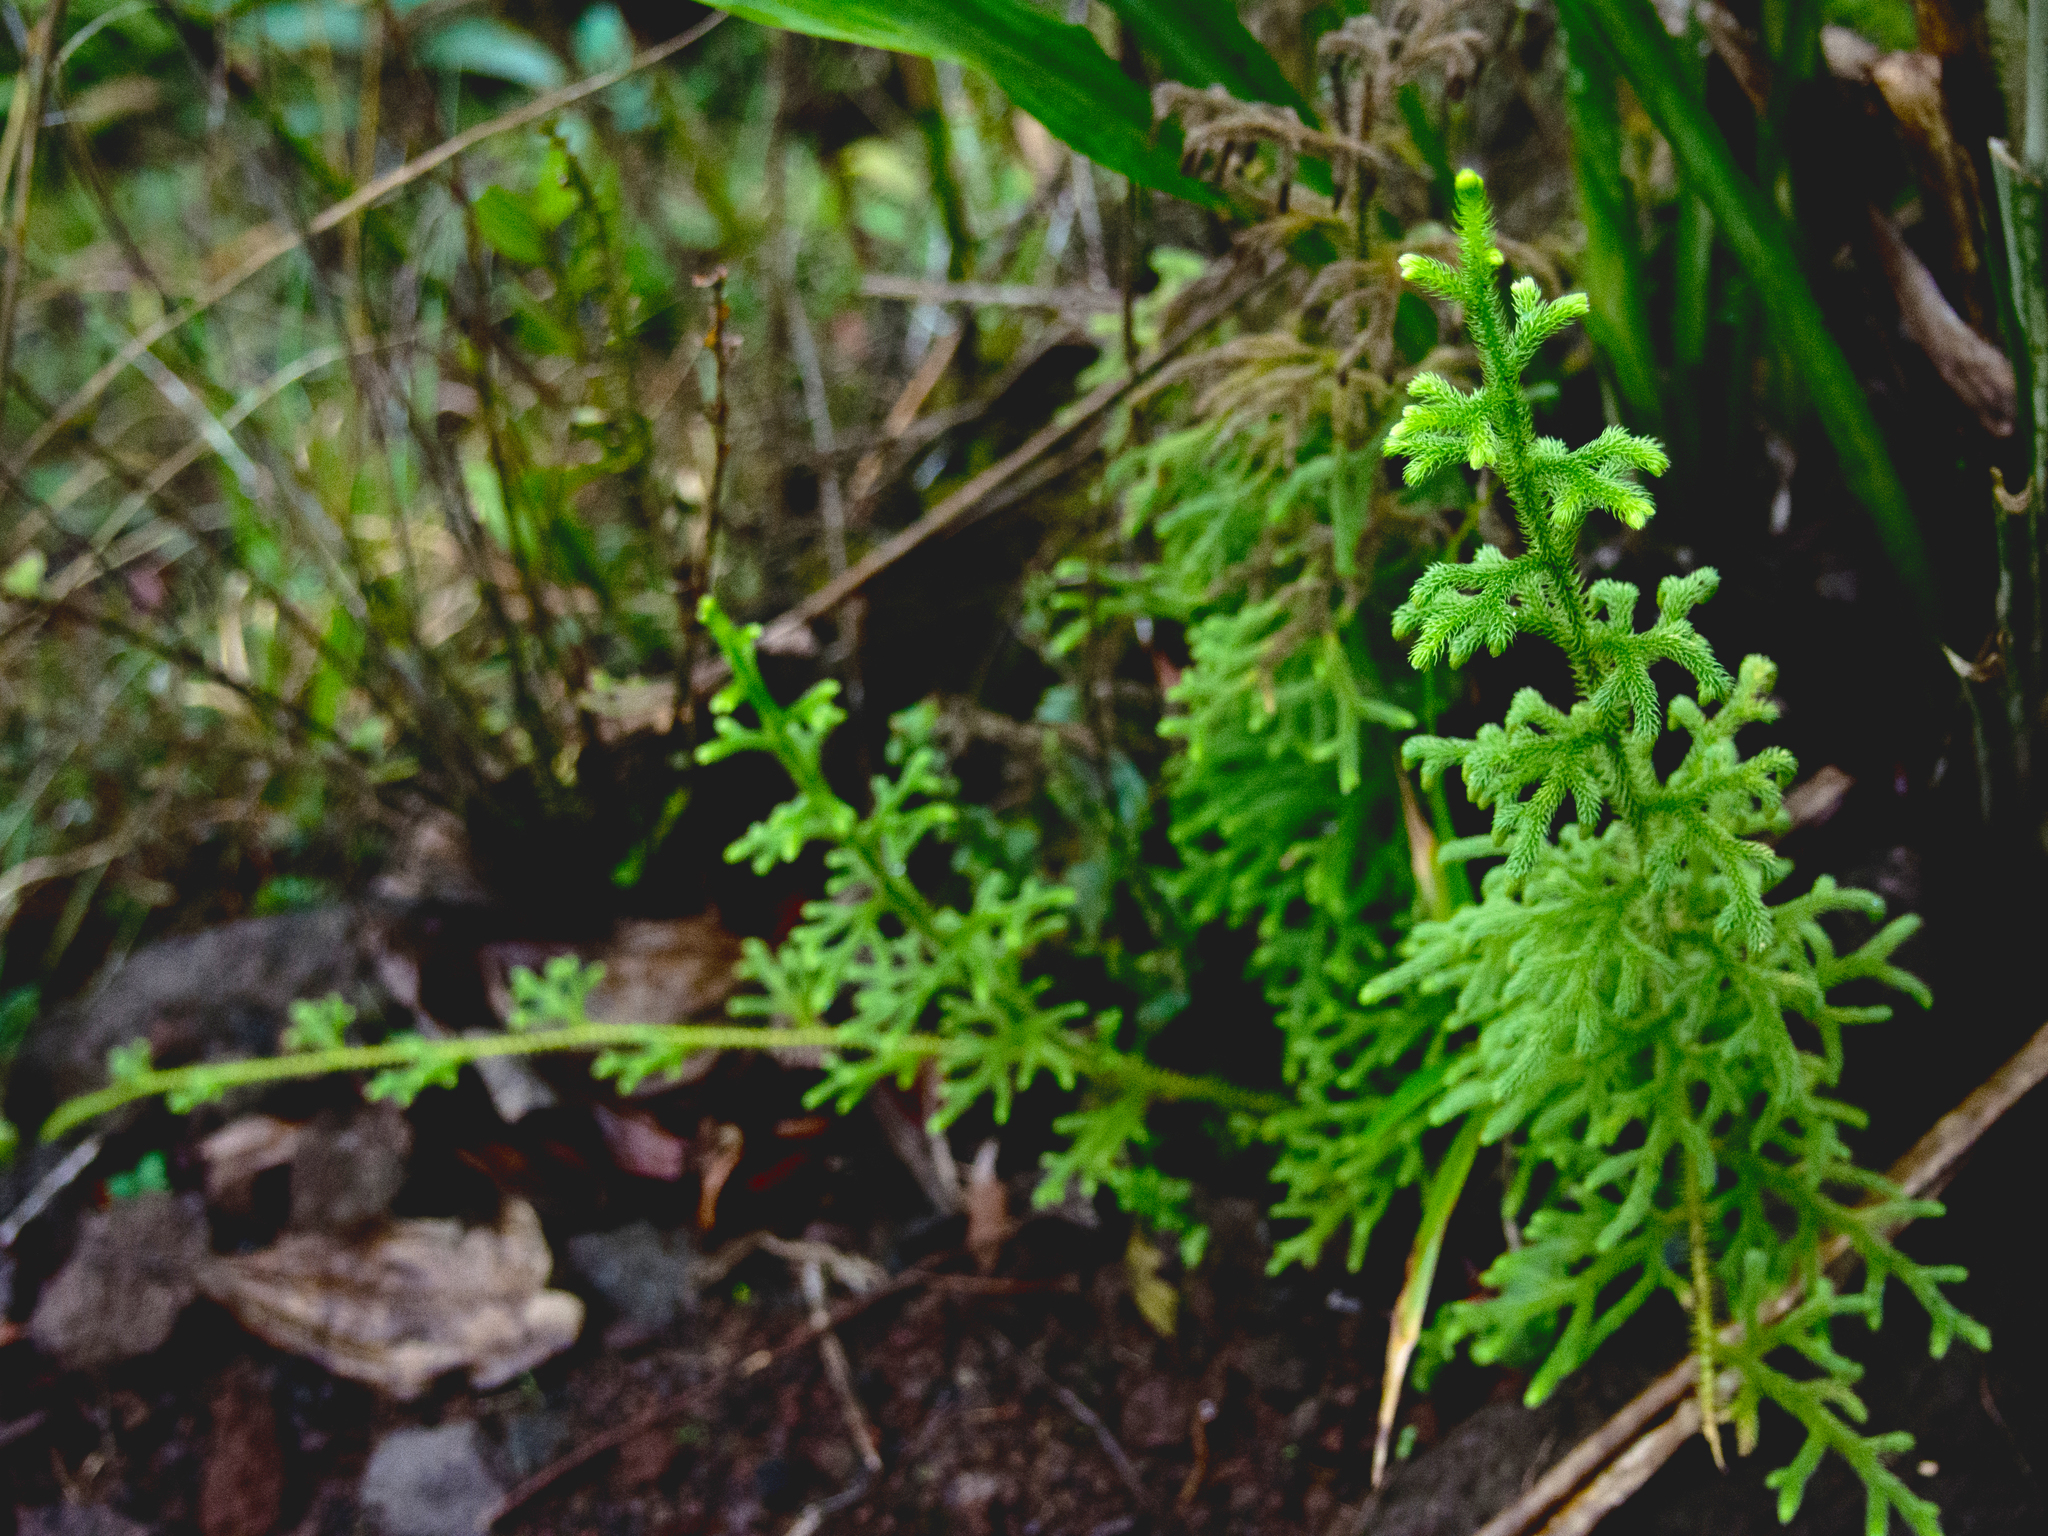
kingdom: Plantae
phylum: Tracheophyta
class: Lycopodiopsida
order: Lycopodiales
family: Lycopodiaceae
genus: Palhinhaea
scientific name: Palhinhaea cernua
